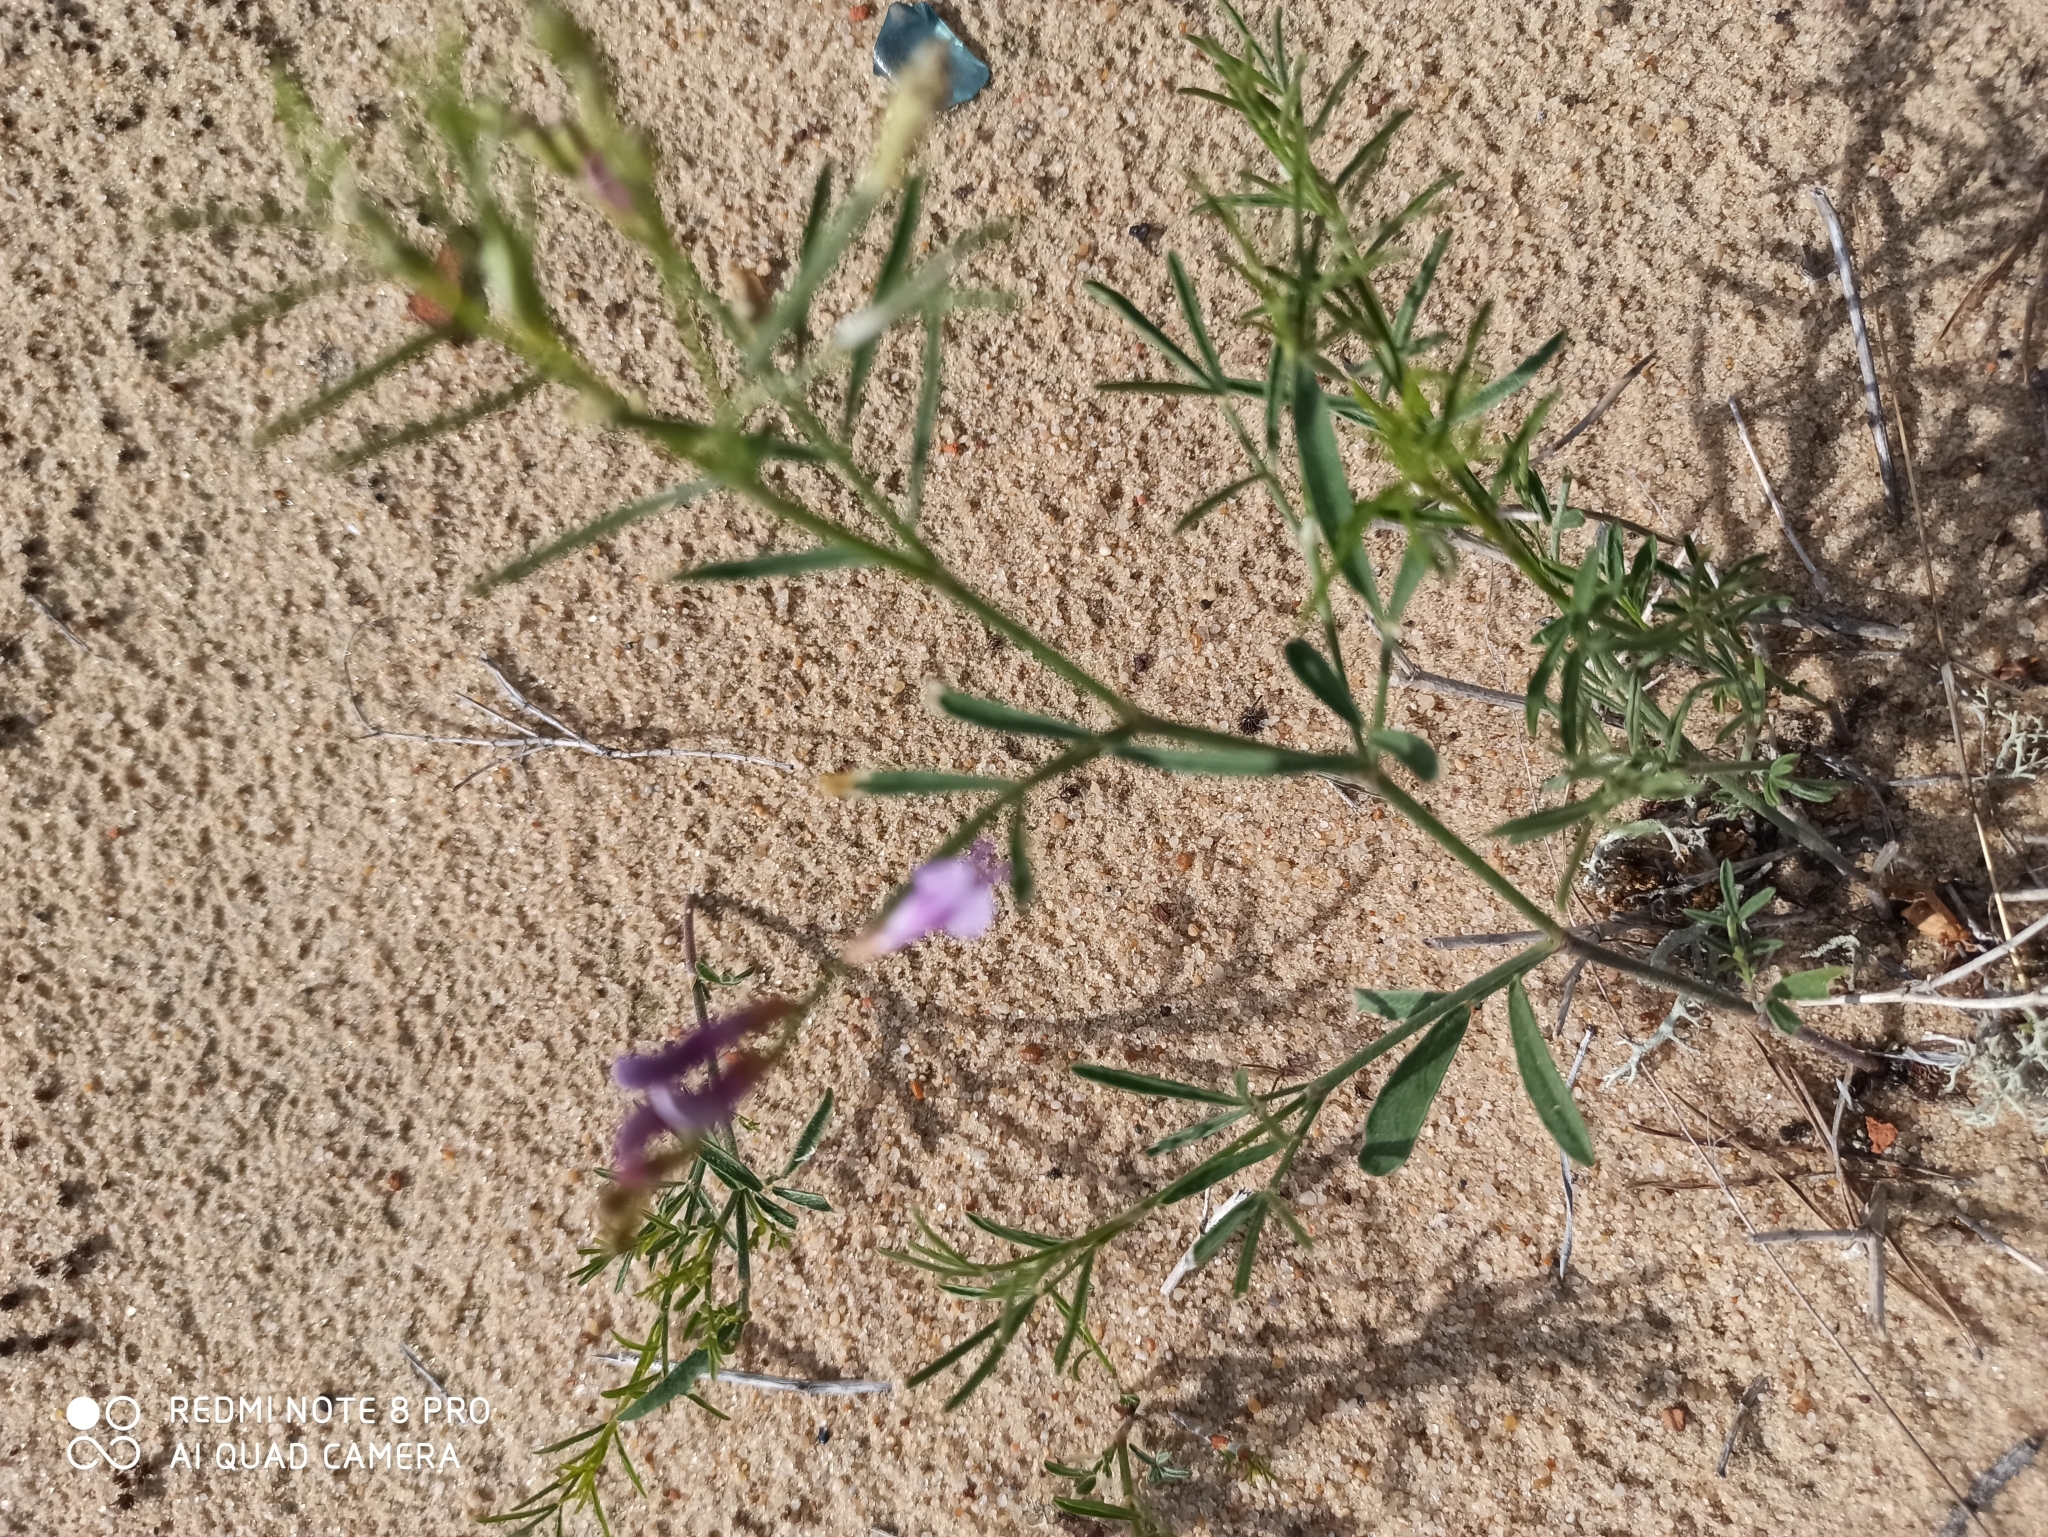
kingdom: Plantae
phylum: Tracheophyta
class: Magnoliopsida
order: Fabales
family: Fabaceae
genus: Astragalus
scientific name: Astragalus arenarius
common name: Arenarious milk-vetch
